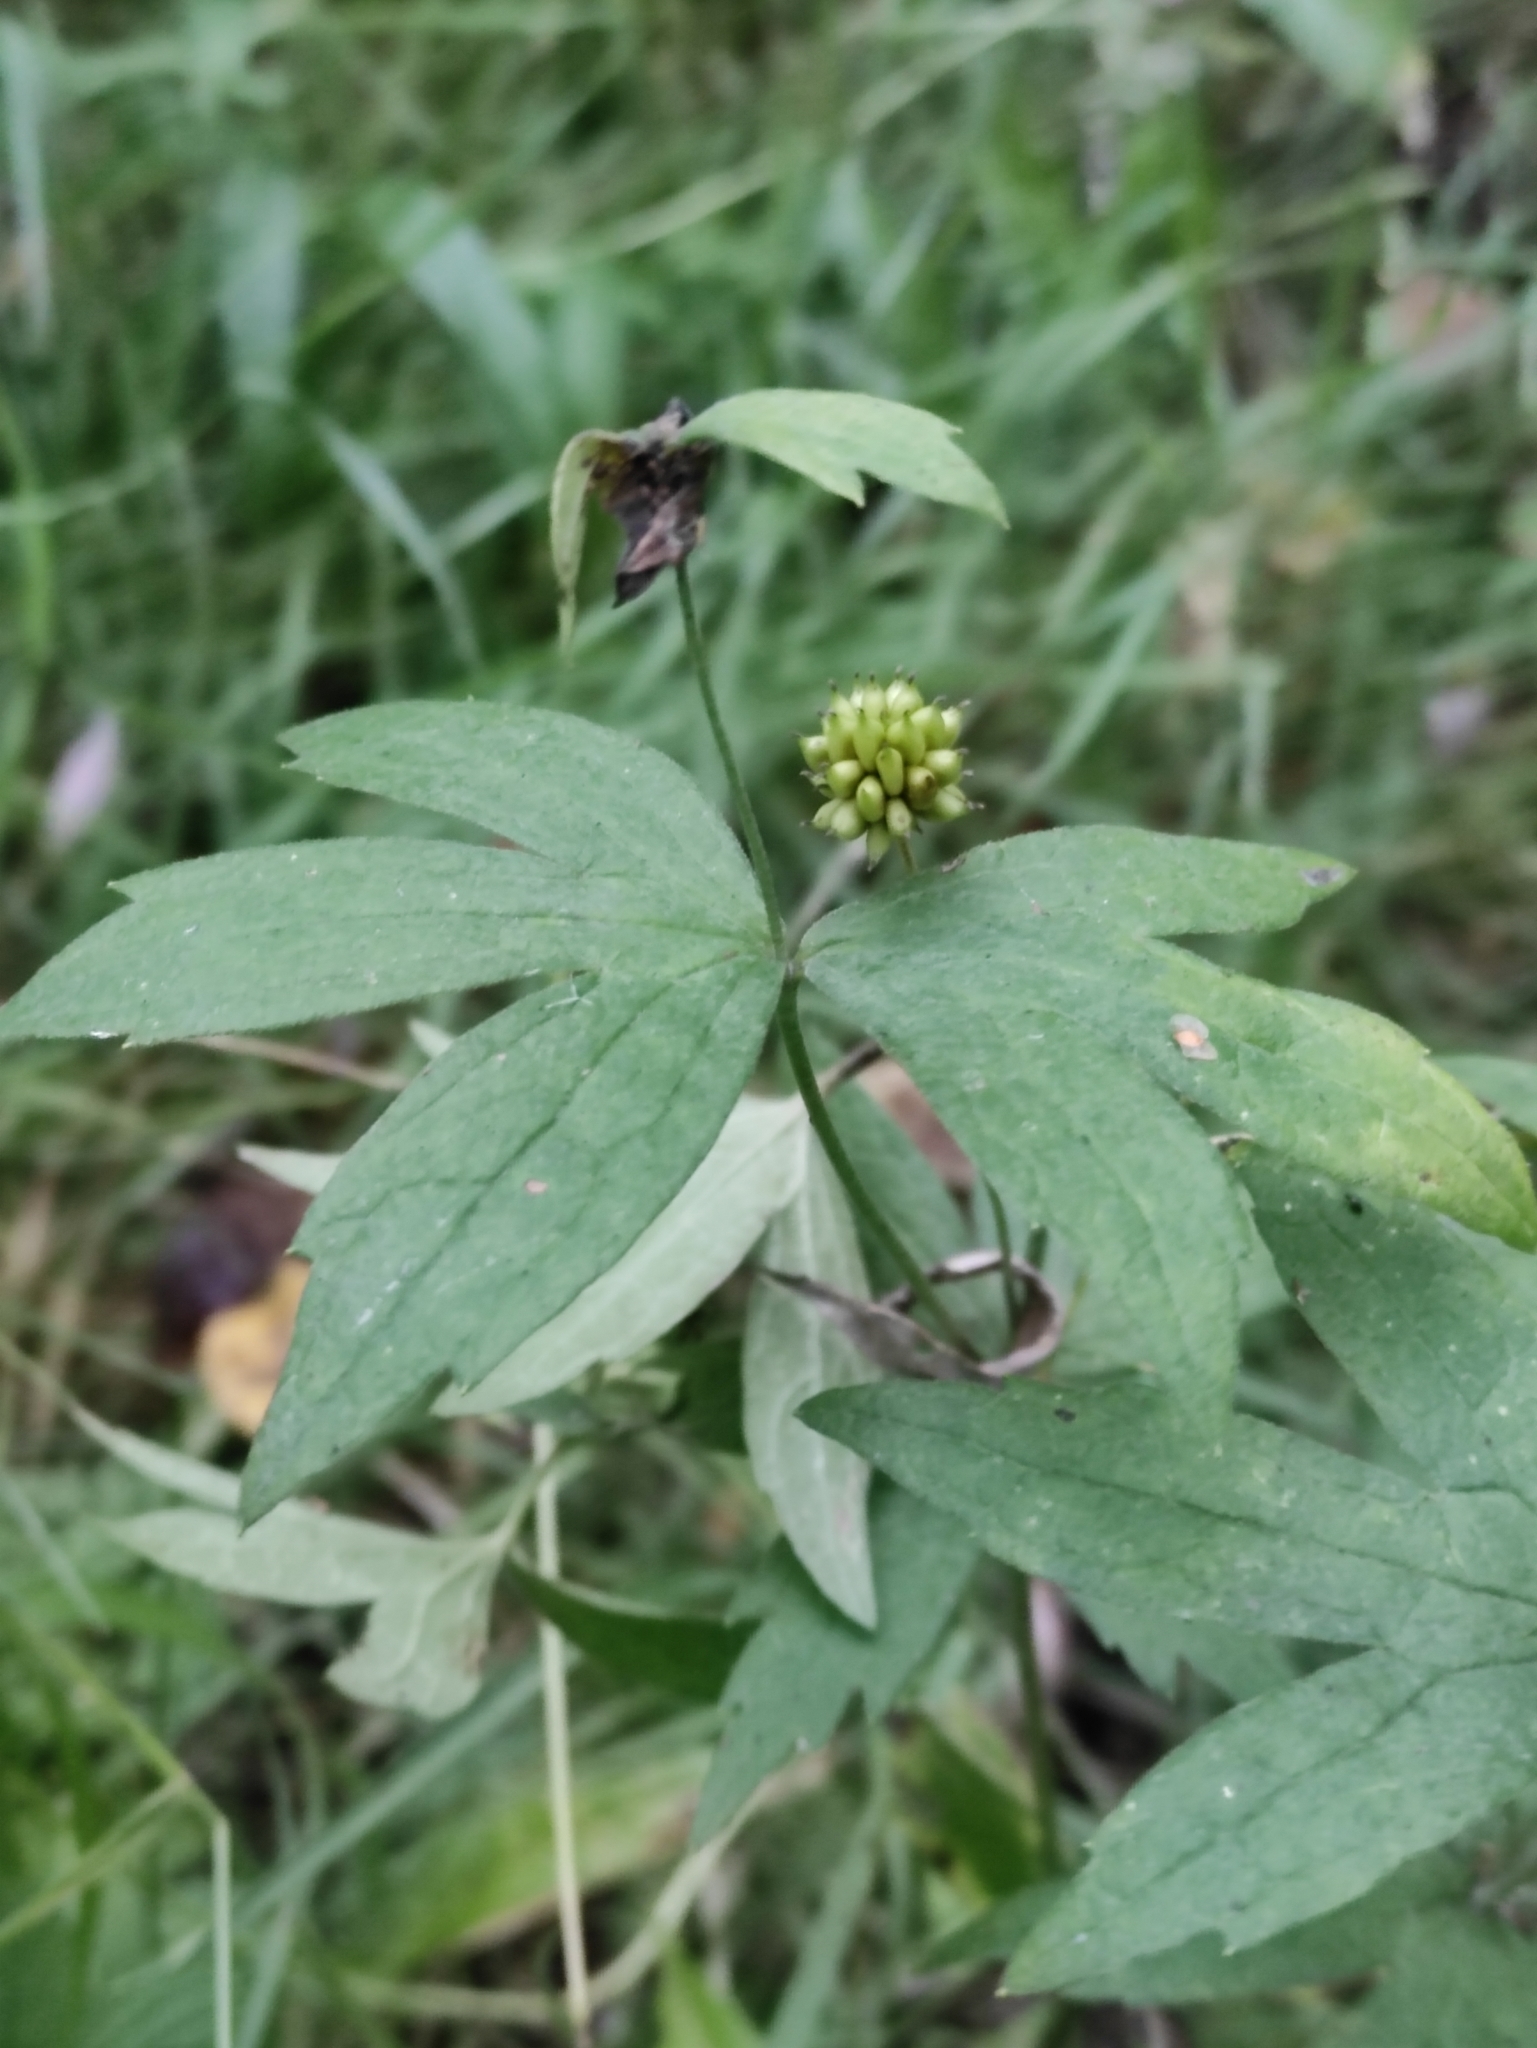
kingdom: Plantae
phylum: Tracheophyta
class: Magnoliopsida
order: Ranunculales
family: Ranunculaceae
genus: Anemonastrum
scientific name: Anemonastrum dichotomum
